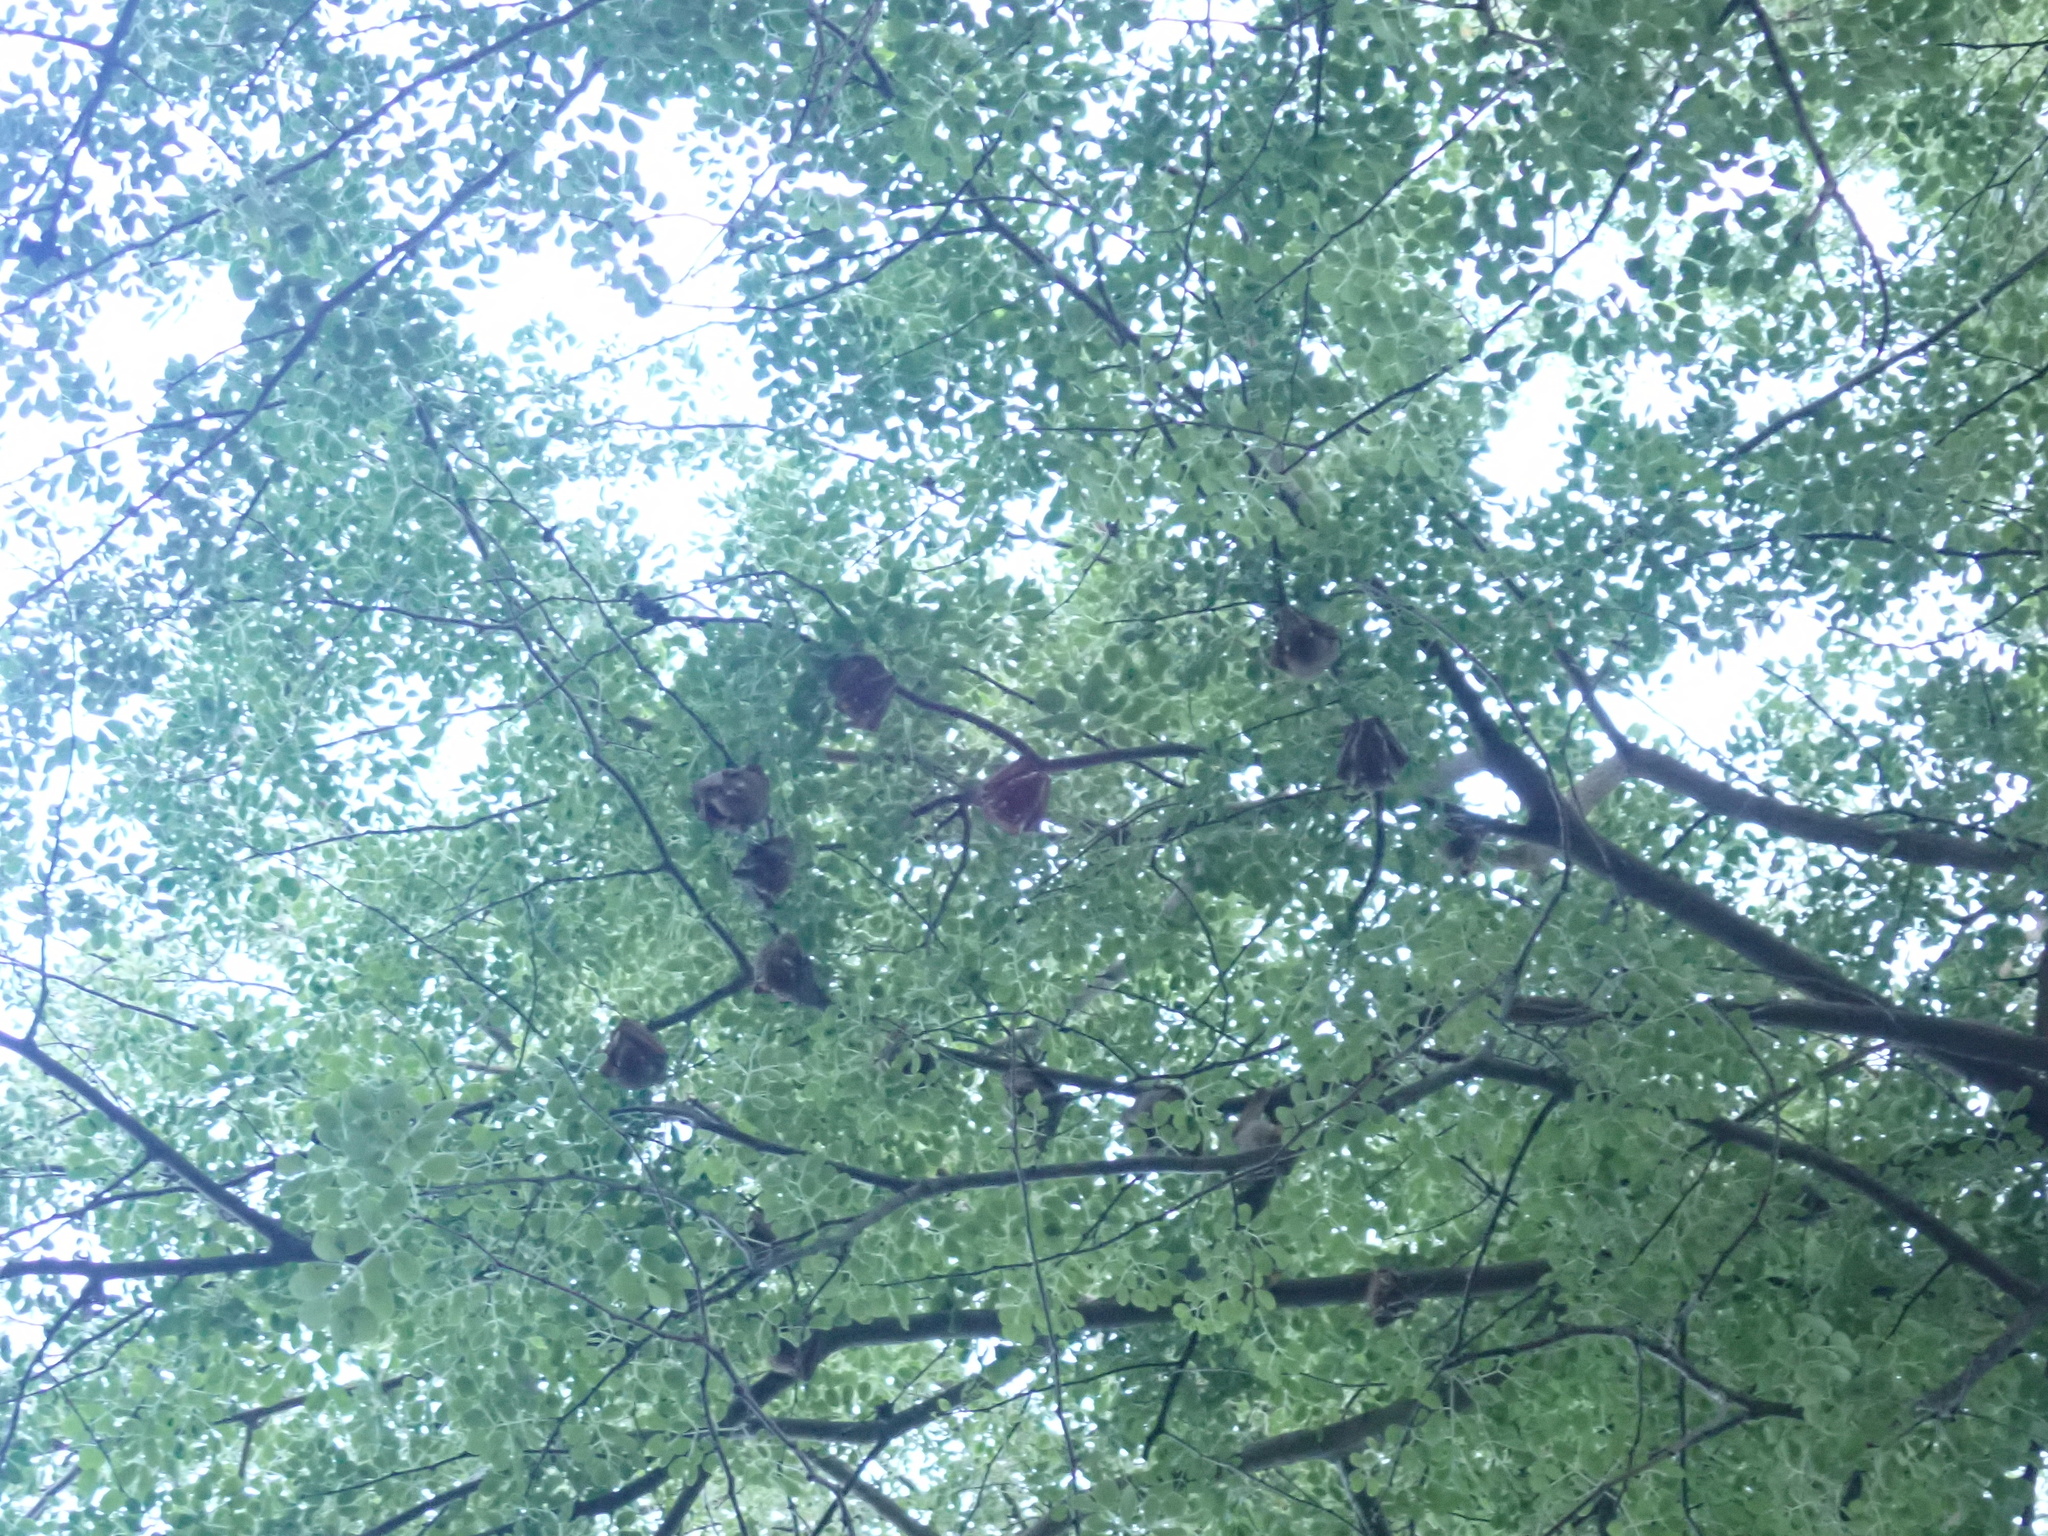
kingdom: Animalia
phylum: Chordata
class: Mammalia
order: Chiroptera
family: Pteropodidae
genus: Epomophorus
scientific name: Epomophorus crypturus
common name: Smaller epauletted fruit bat
